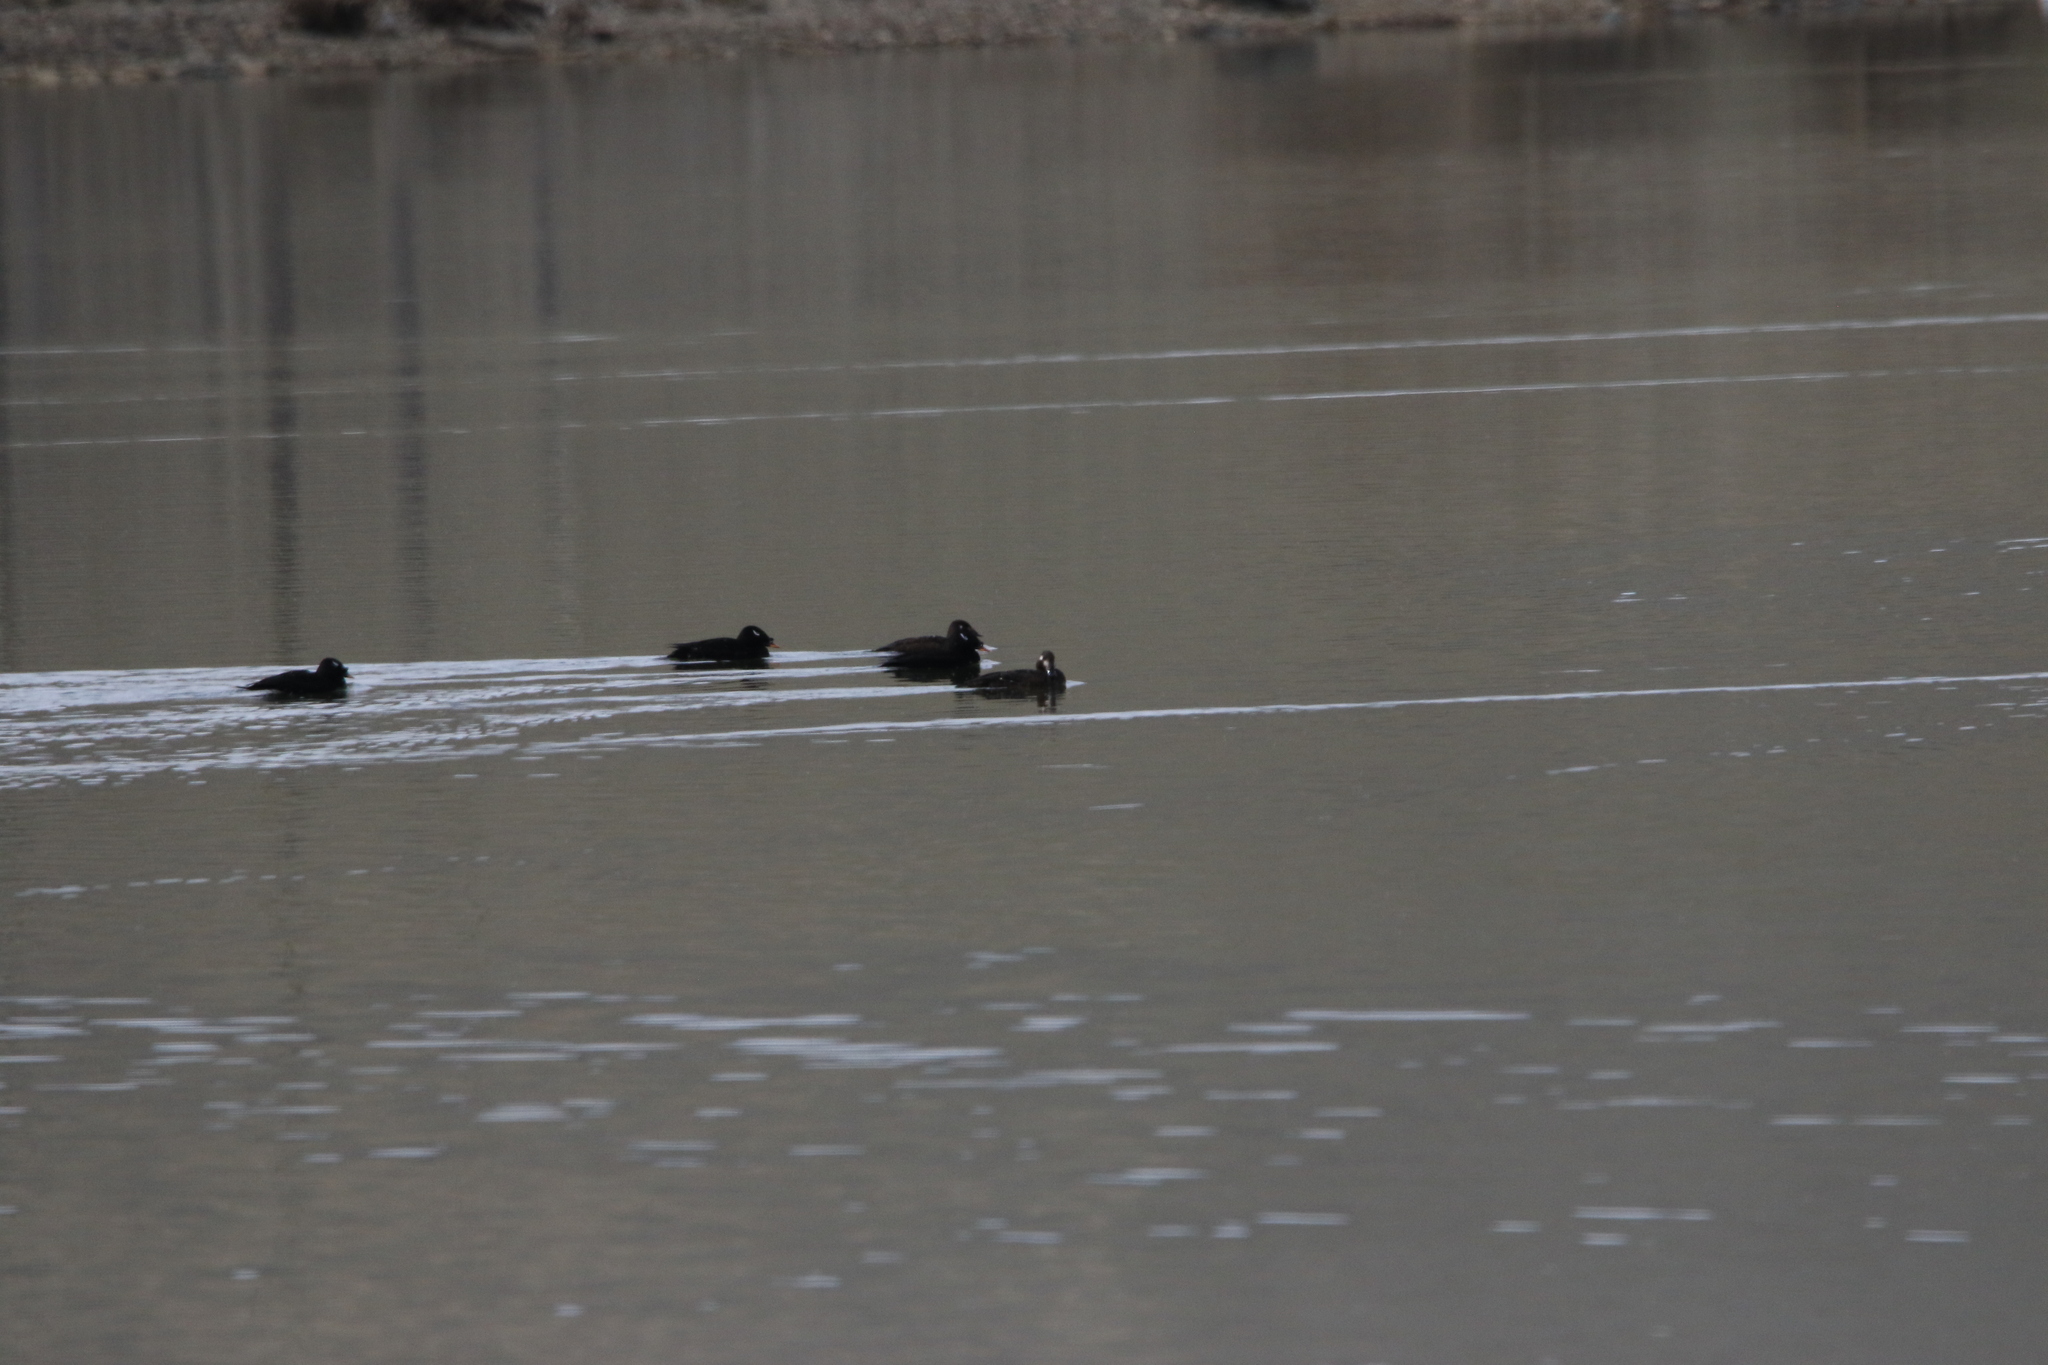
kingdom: Animalia
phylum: Chordata
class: Aves
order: Anseriformes
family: Anatidae
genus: Melanitta
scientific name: Melanitta stejnegeri
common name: Stejneger's scoter
